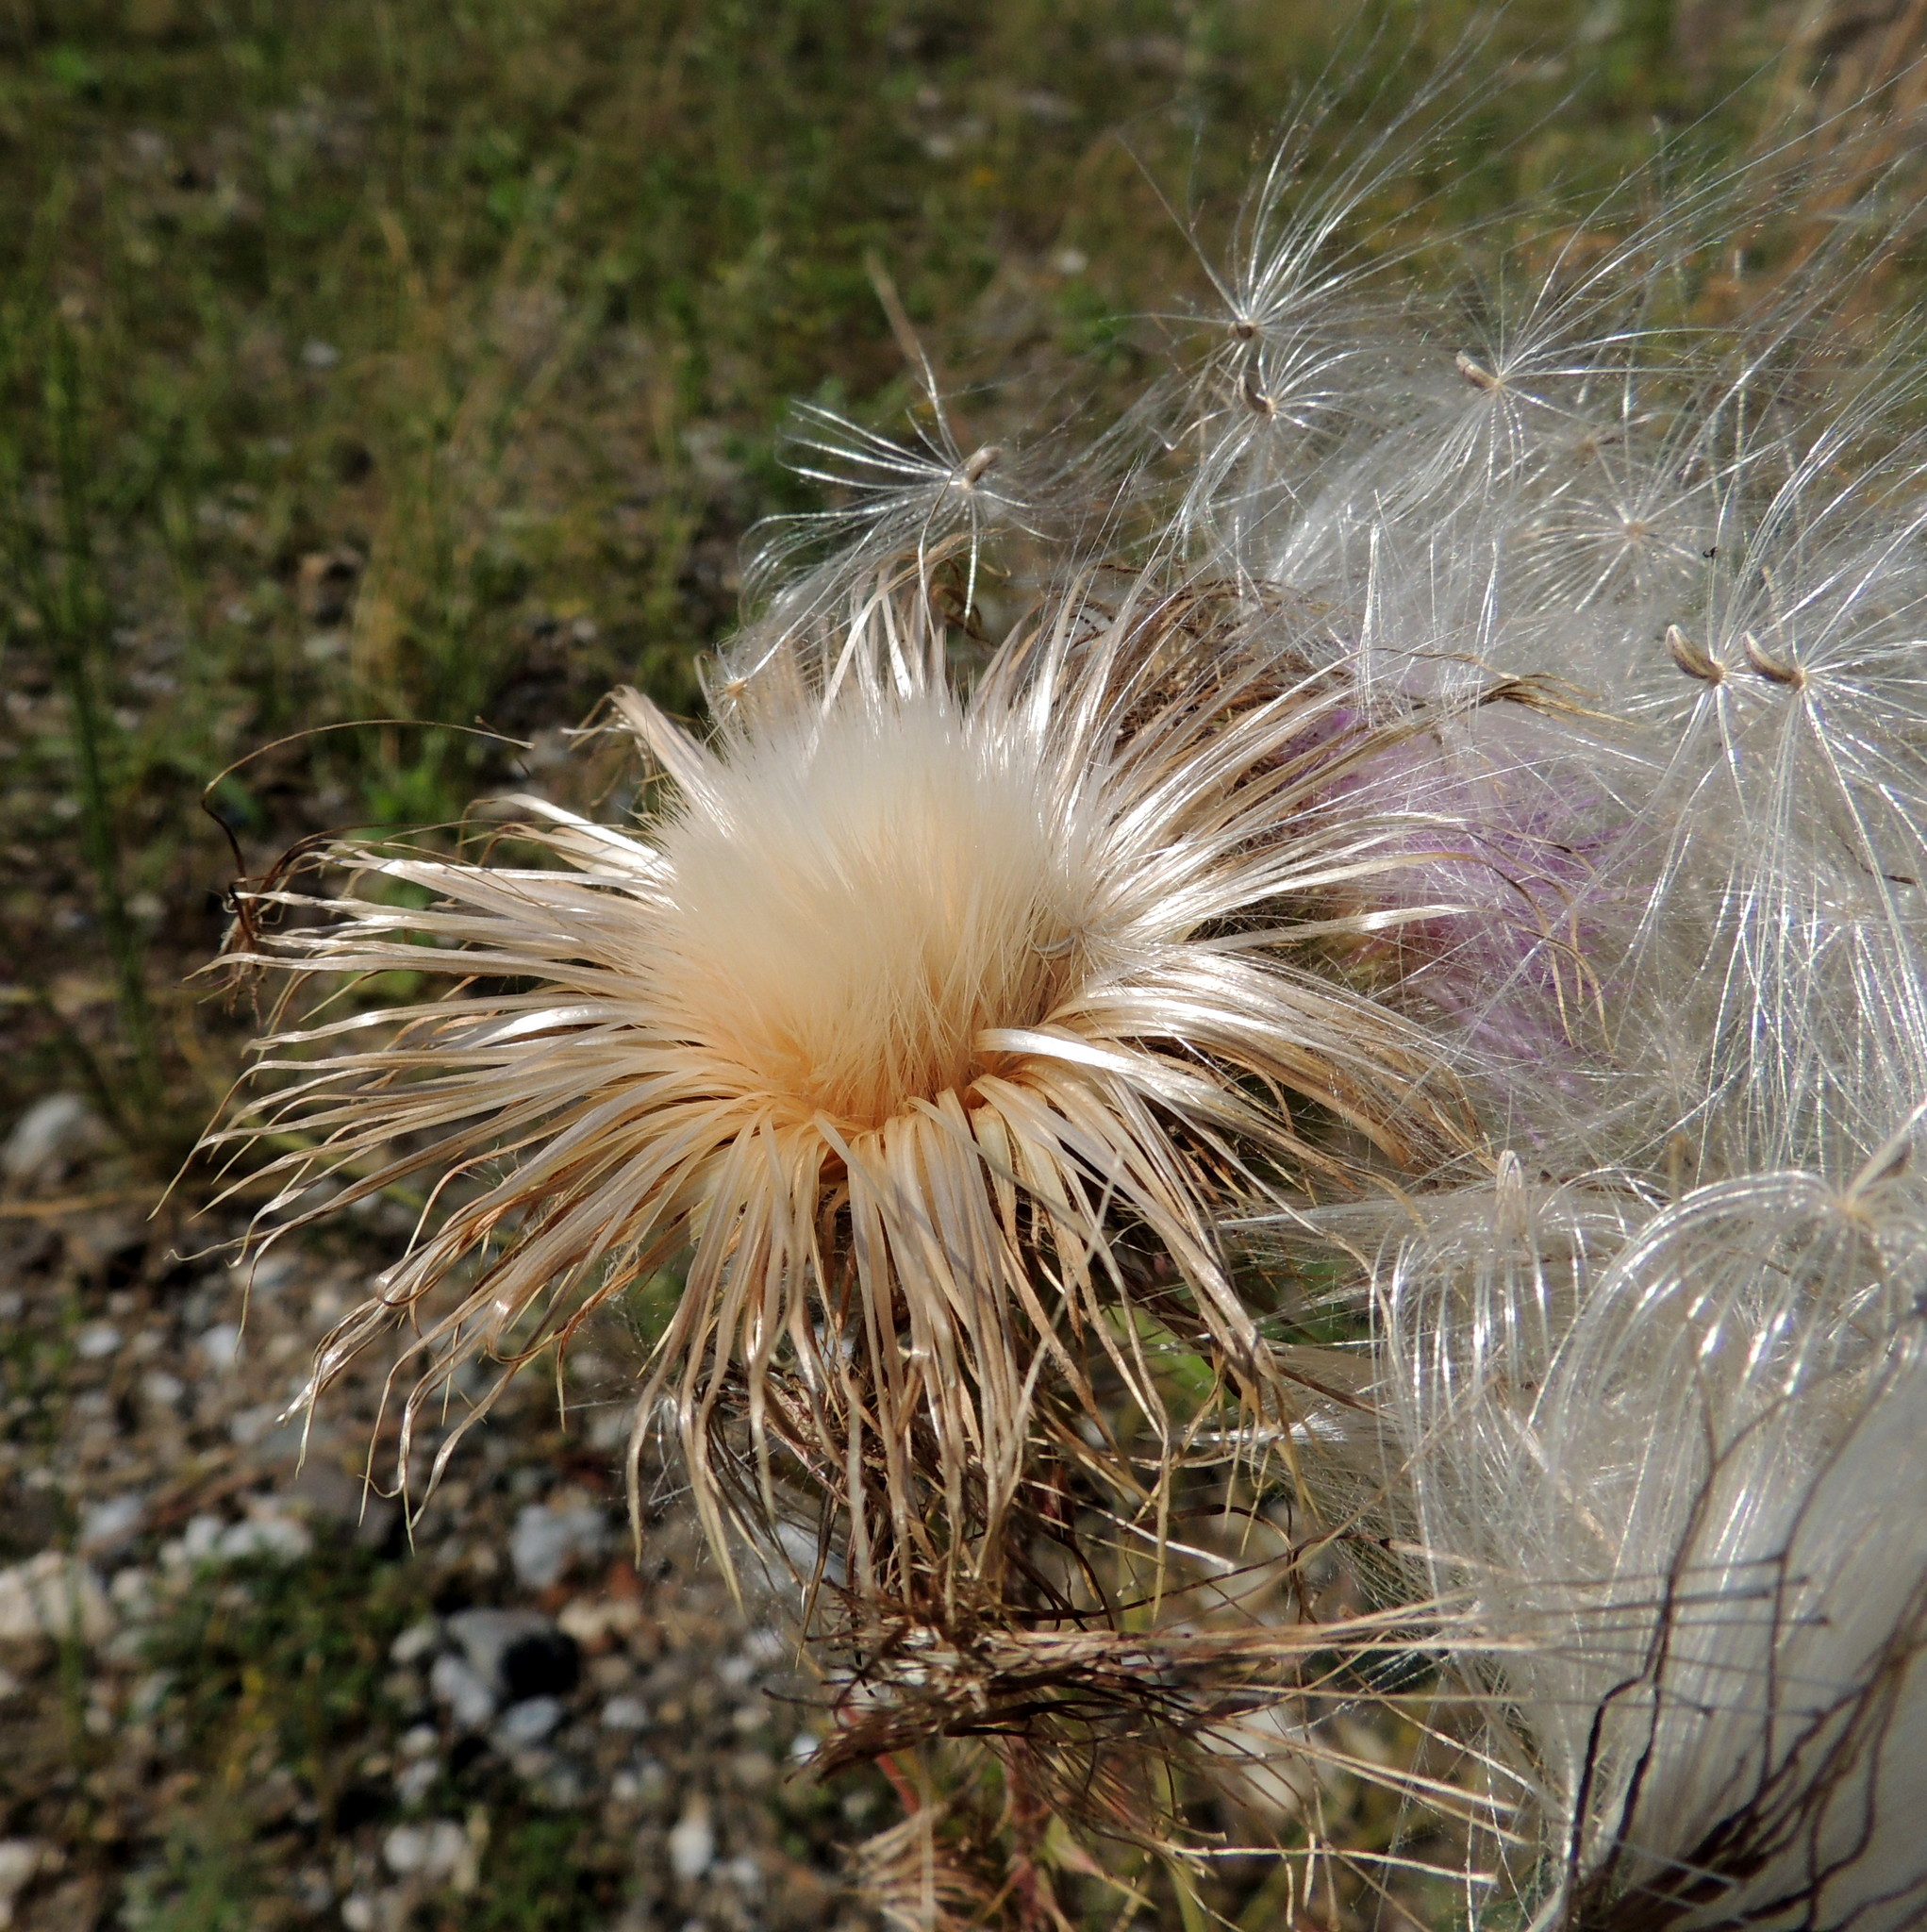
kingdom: Plantae
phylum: Tracheophyta
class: Magnoliopsida
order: Asterales
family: Asteraceae
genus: Cirsium
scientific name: Cirsium vulgare
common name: Bull thistle
